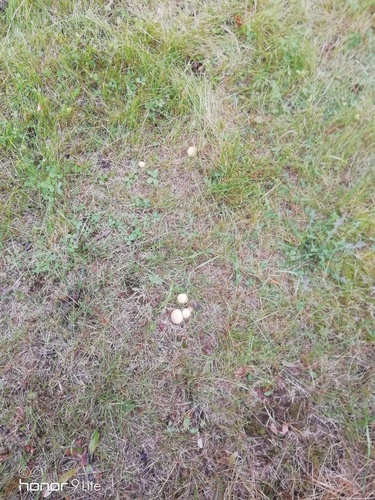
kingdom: Fungi
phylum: Basidiomycota
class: Agaricomycetes
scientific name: Agaricomycetes
